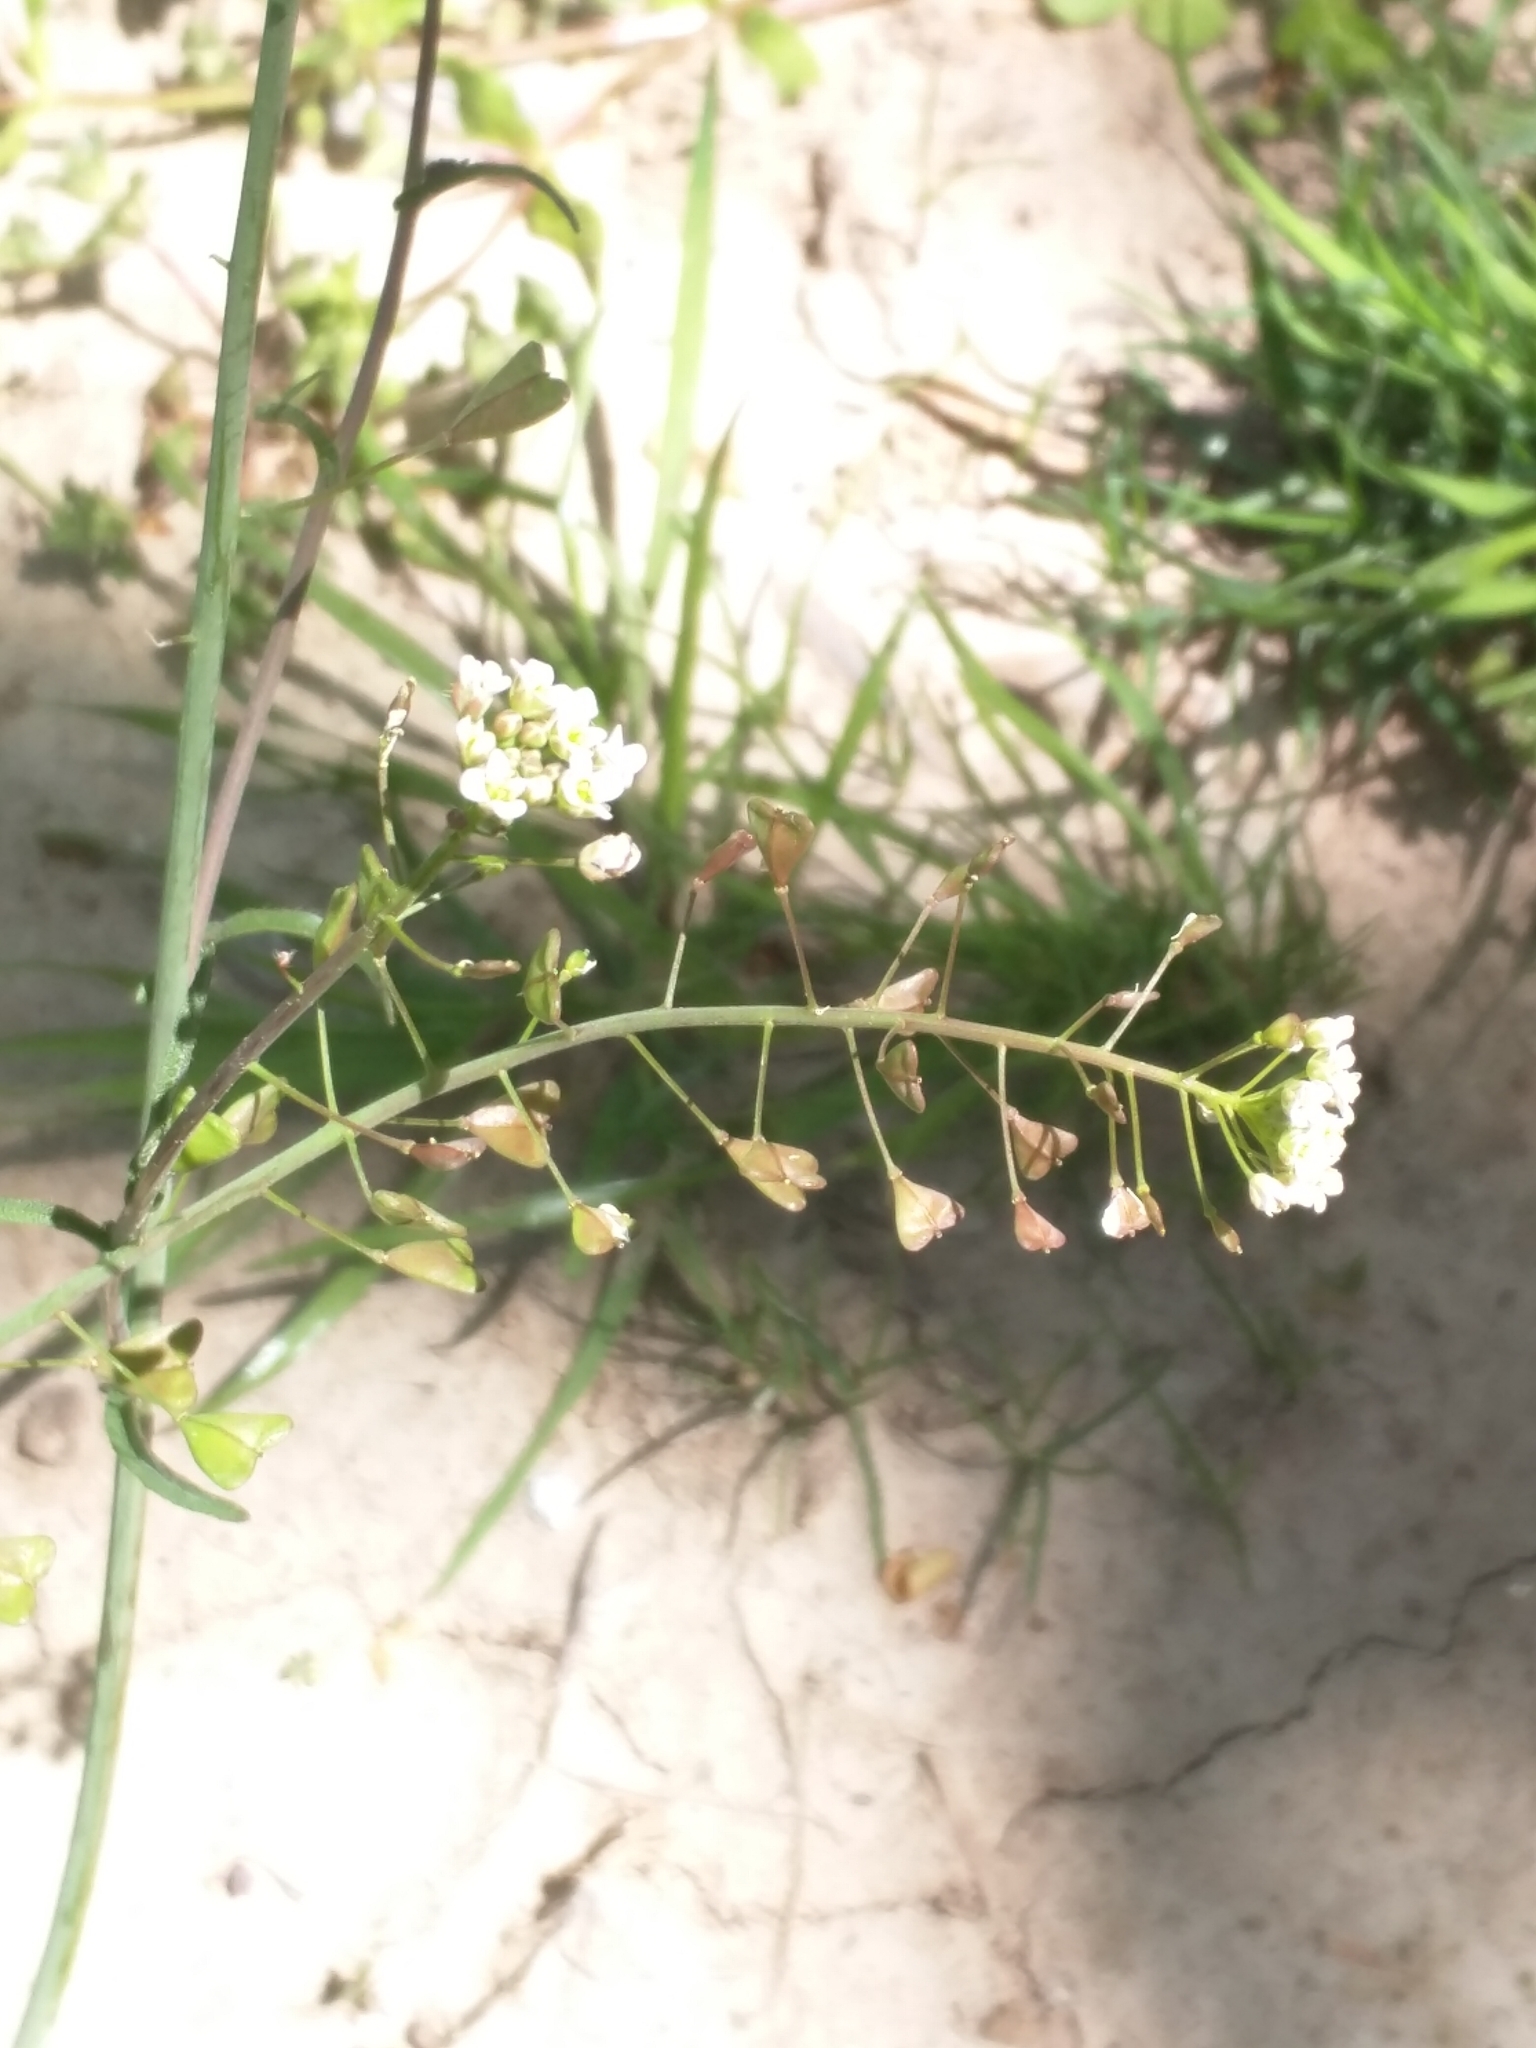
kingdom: Plantae
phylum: Tracheophyta
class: Magnoliopsida
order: Brassicales
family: Brassicaceae
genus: Capsella
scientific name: Capsella bursa-pastoris
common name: Shepherd's purse
